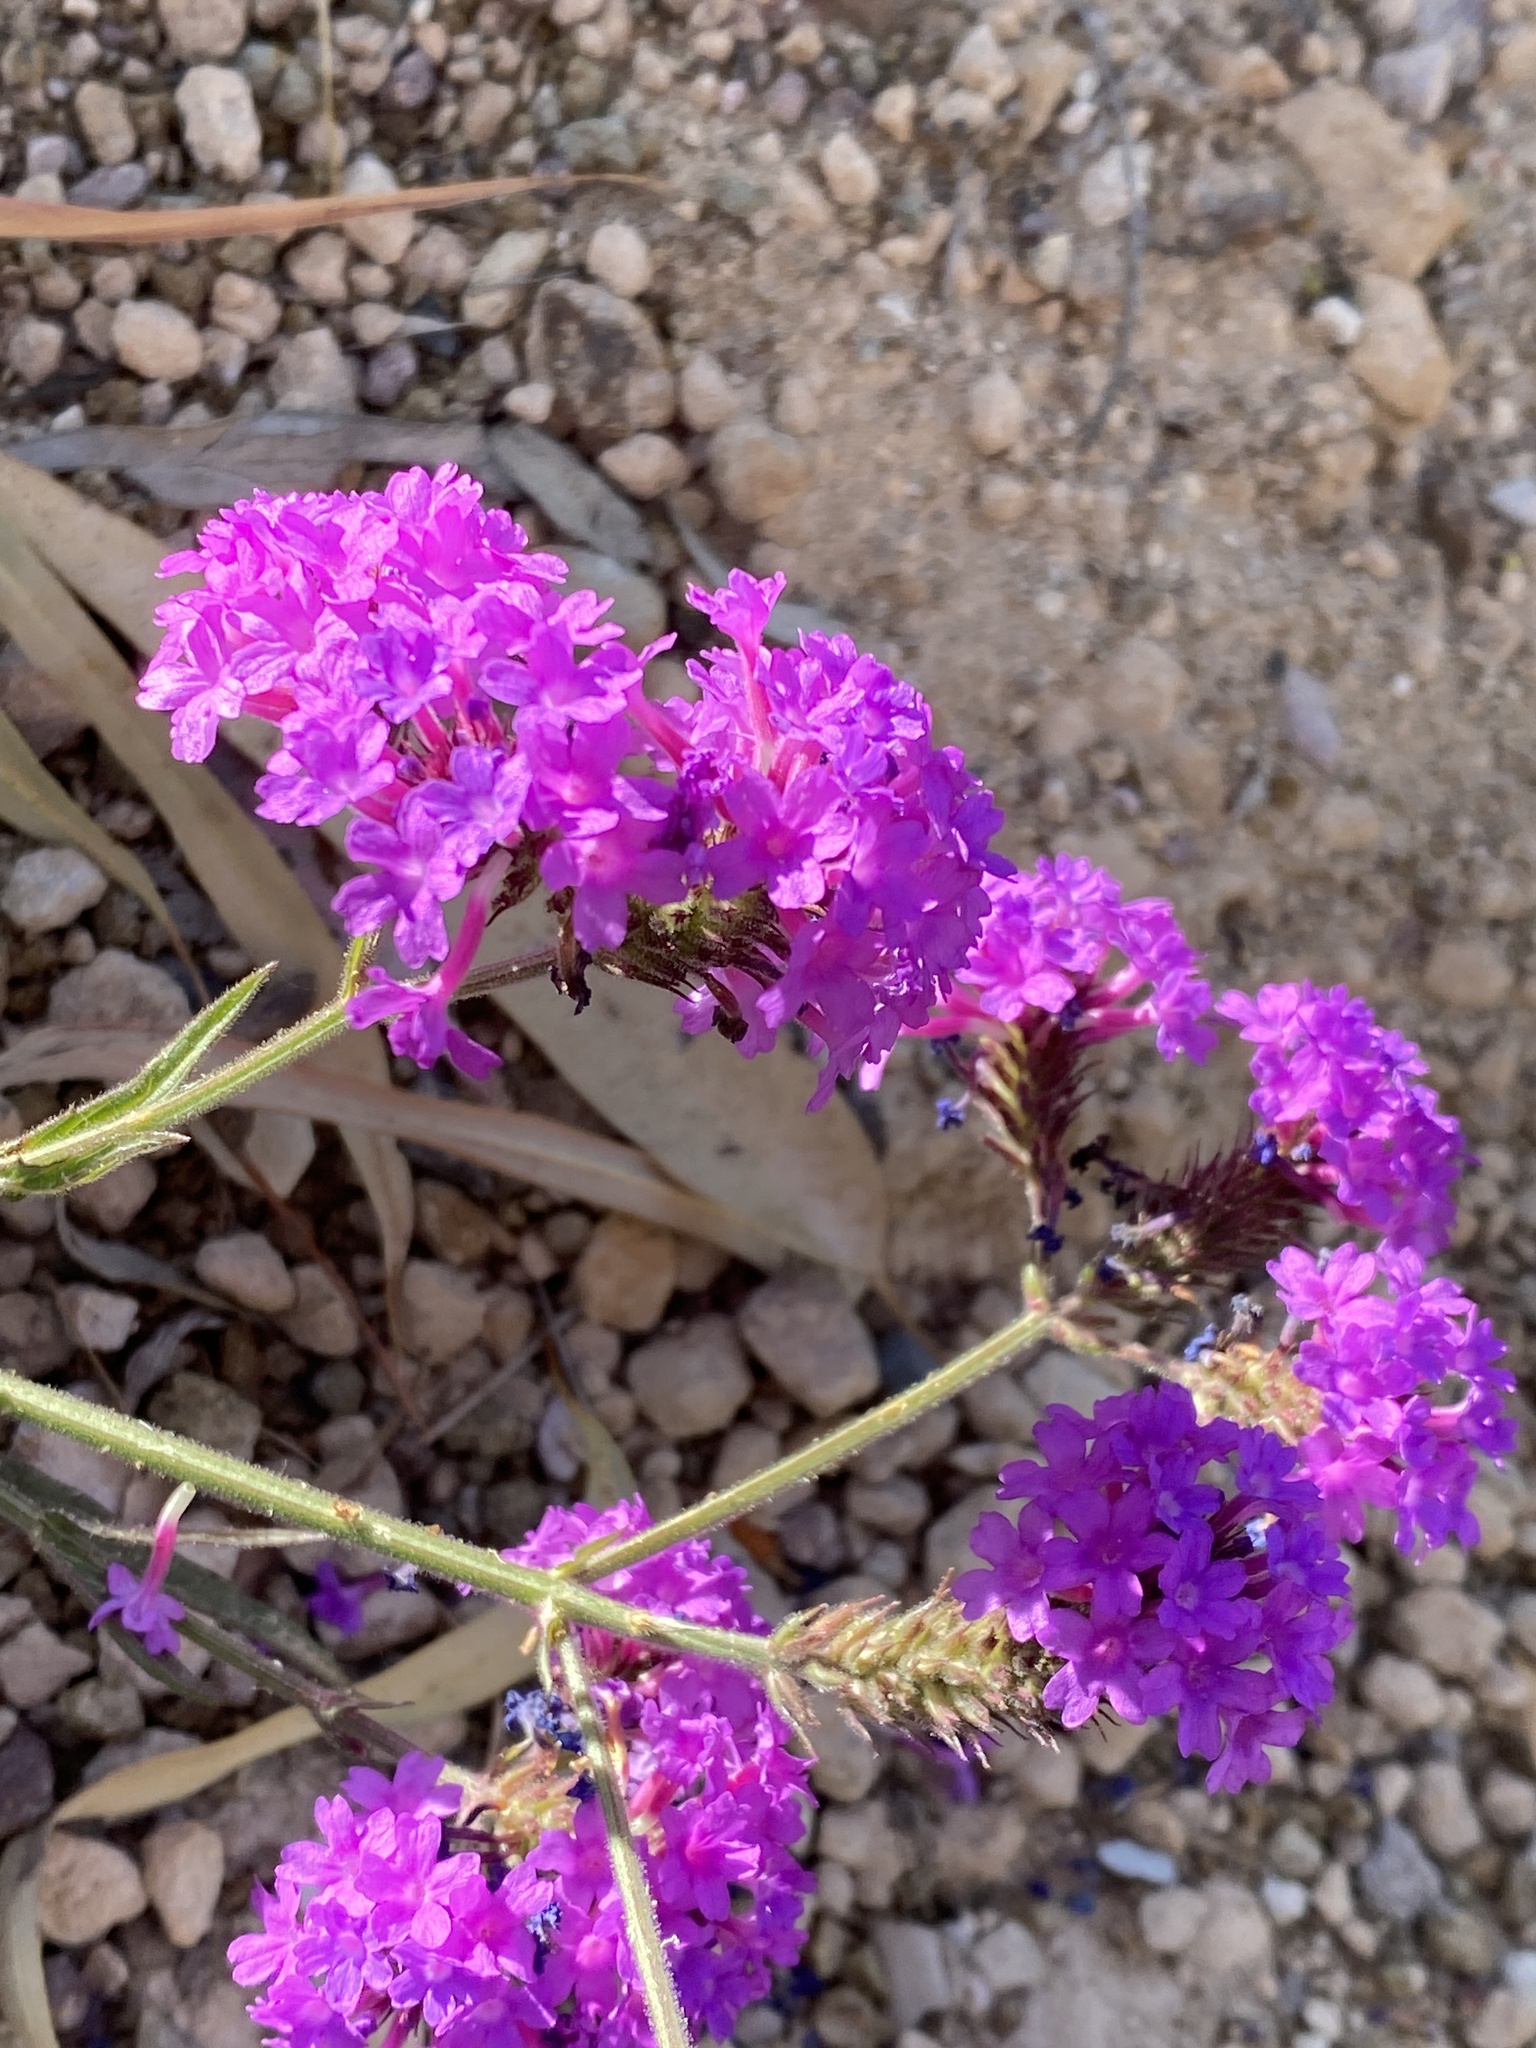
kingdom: Plantae
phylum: Tracheophyta
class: Magnoliopsida
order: Lamiales
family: Verbenaceae
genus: Verbena
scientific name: Verbena rigida
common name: Slender vervain
